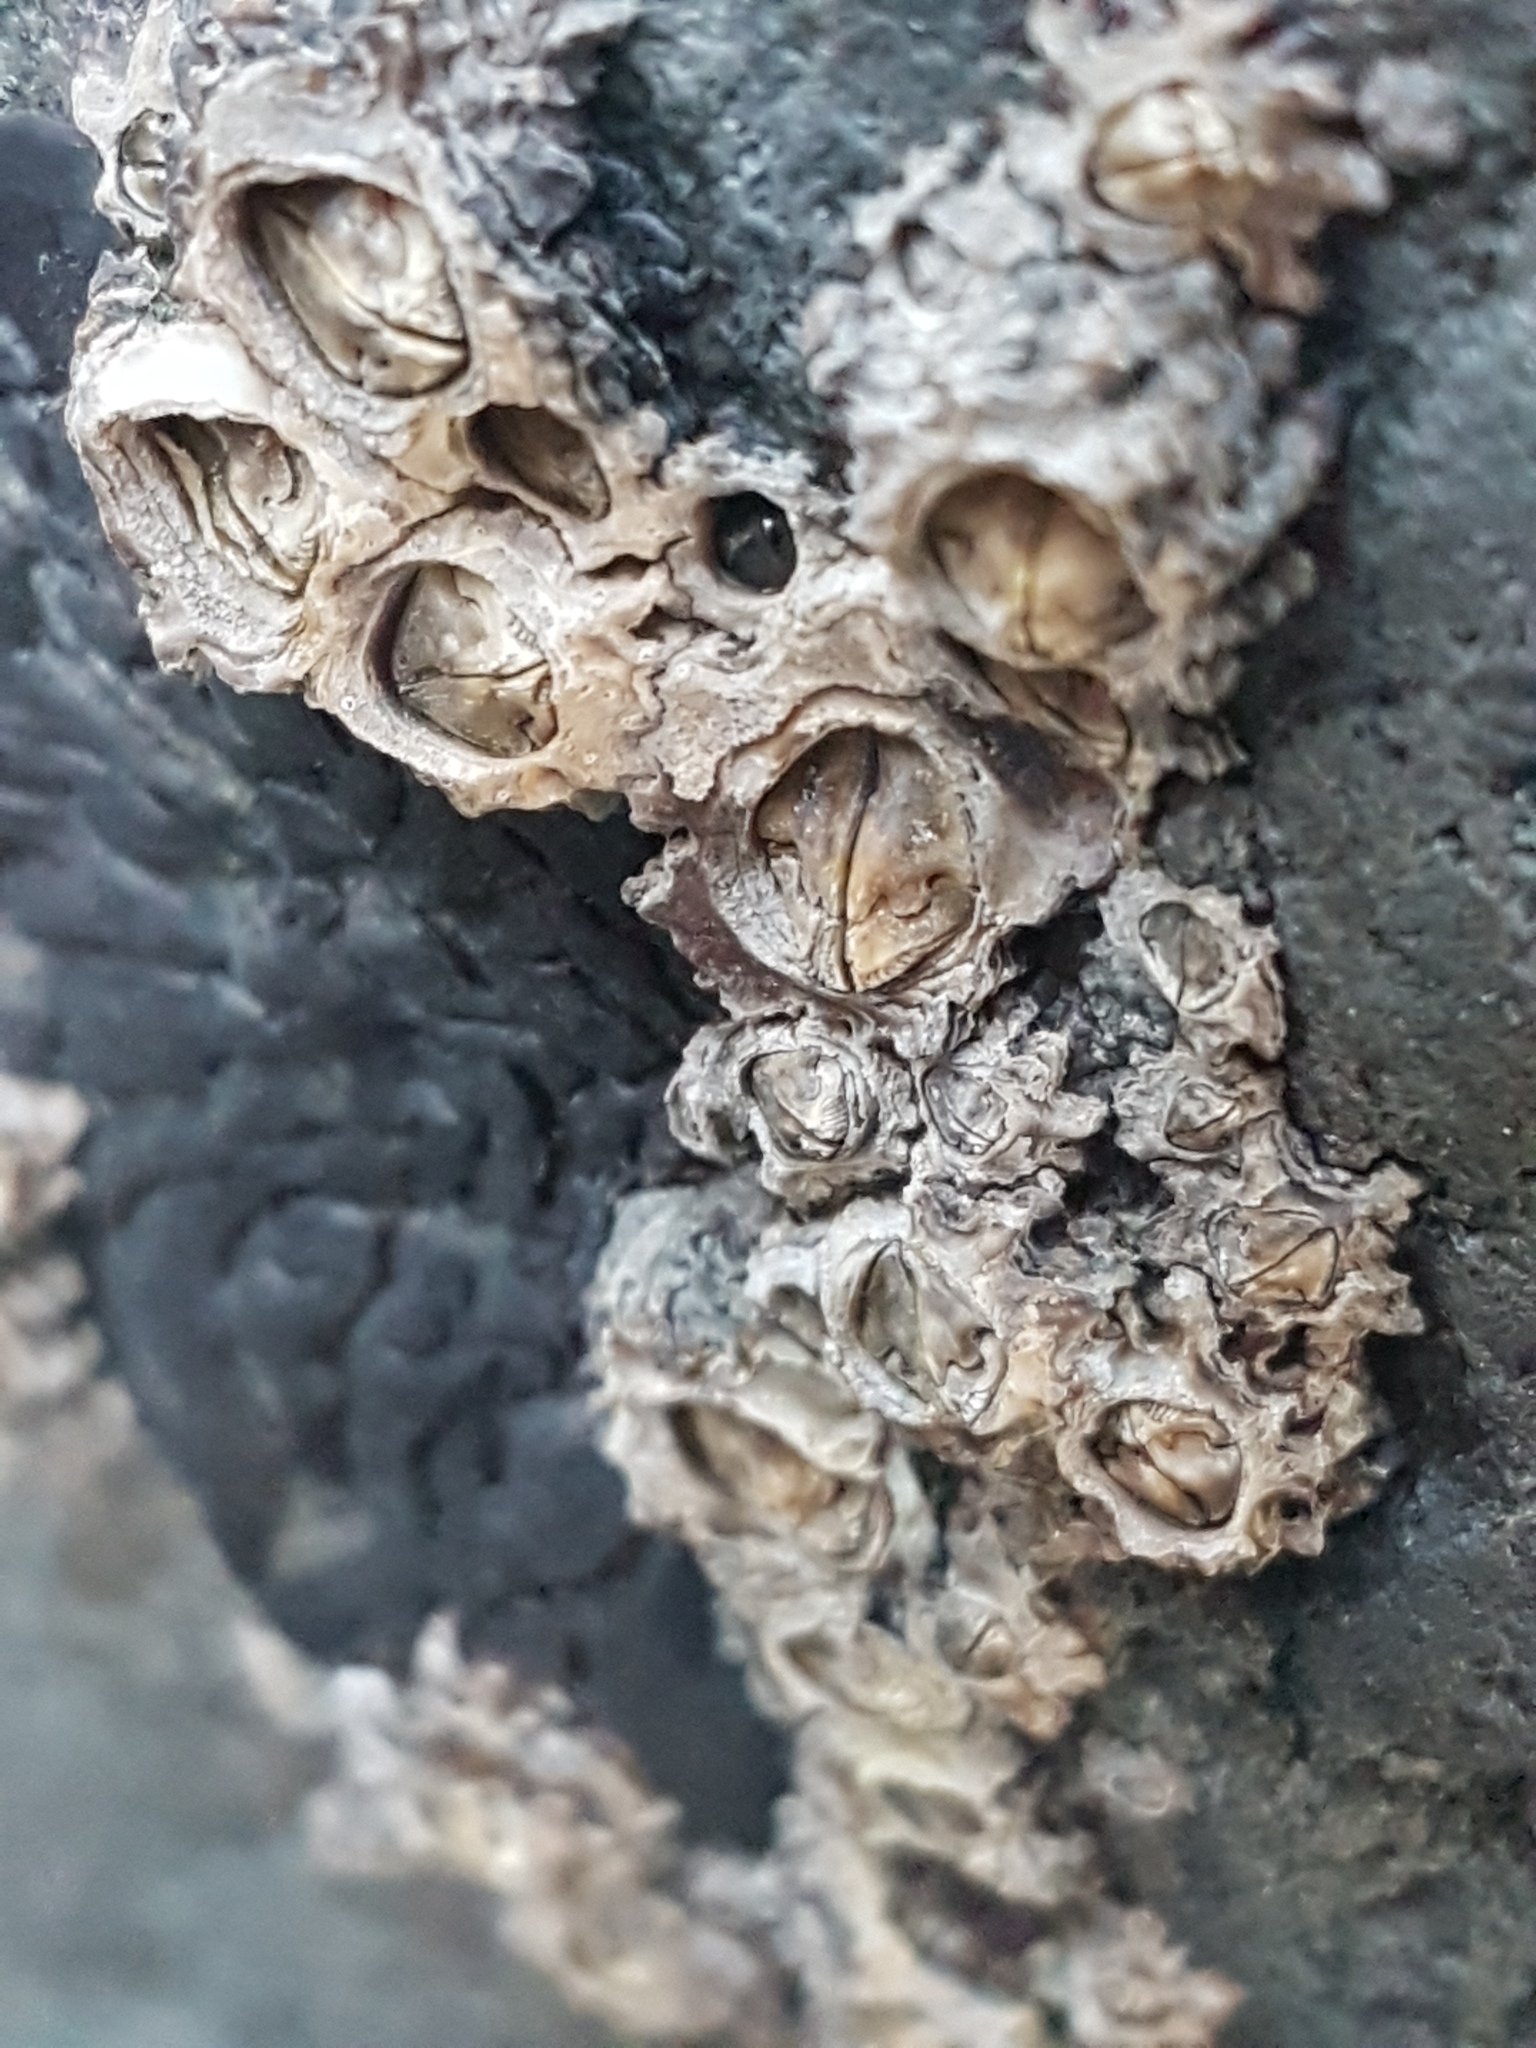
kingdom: Animalia
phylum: Arthropoda
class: Maxillopoda
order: Sessilia
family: Chthamalidae
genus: Chamaesipho
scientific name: Chamaesipho brunnea
